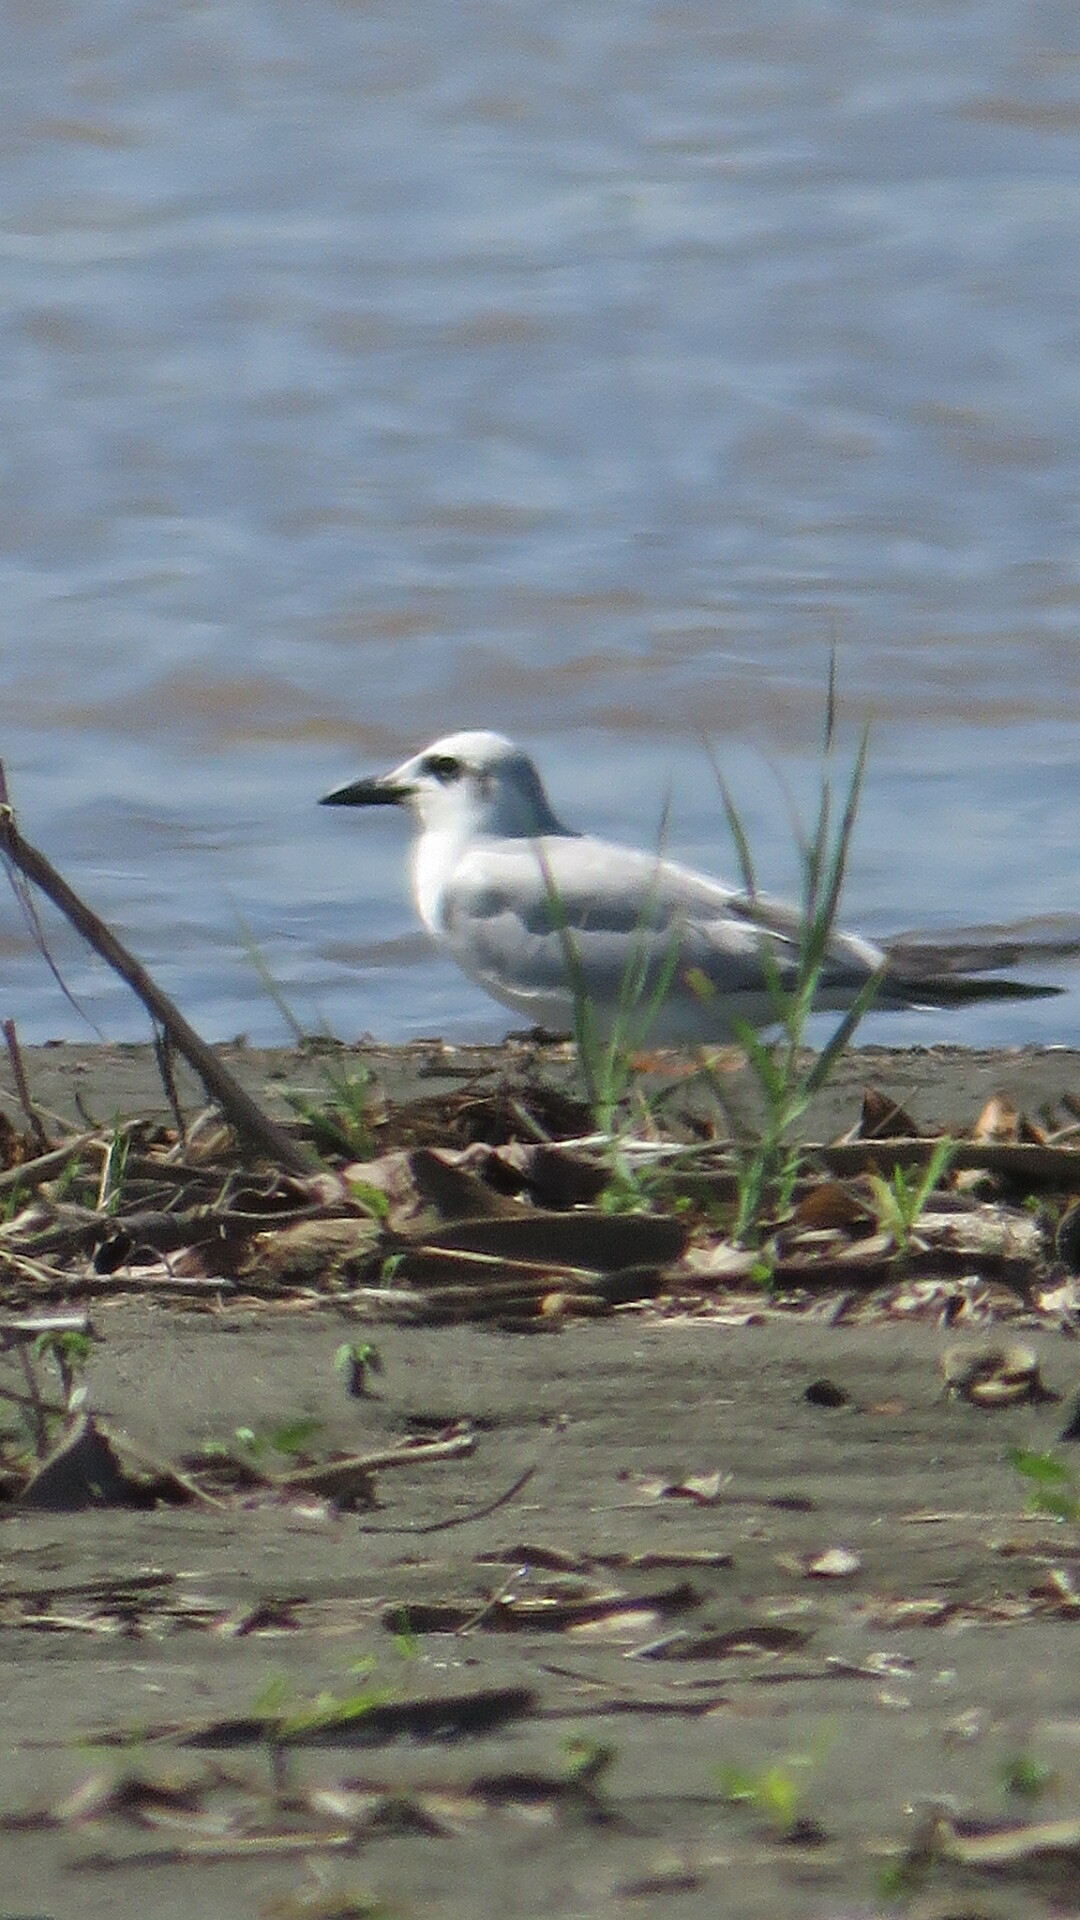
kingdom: Animalia
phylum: Chordata
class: Aves
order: Charadriiformes
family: Laridae
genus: Gelochelidon
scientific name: Gelochelidon nilotica
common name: Gull-billed tern
